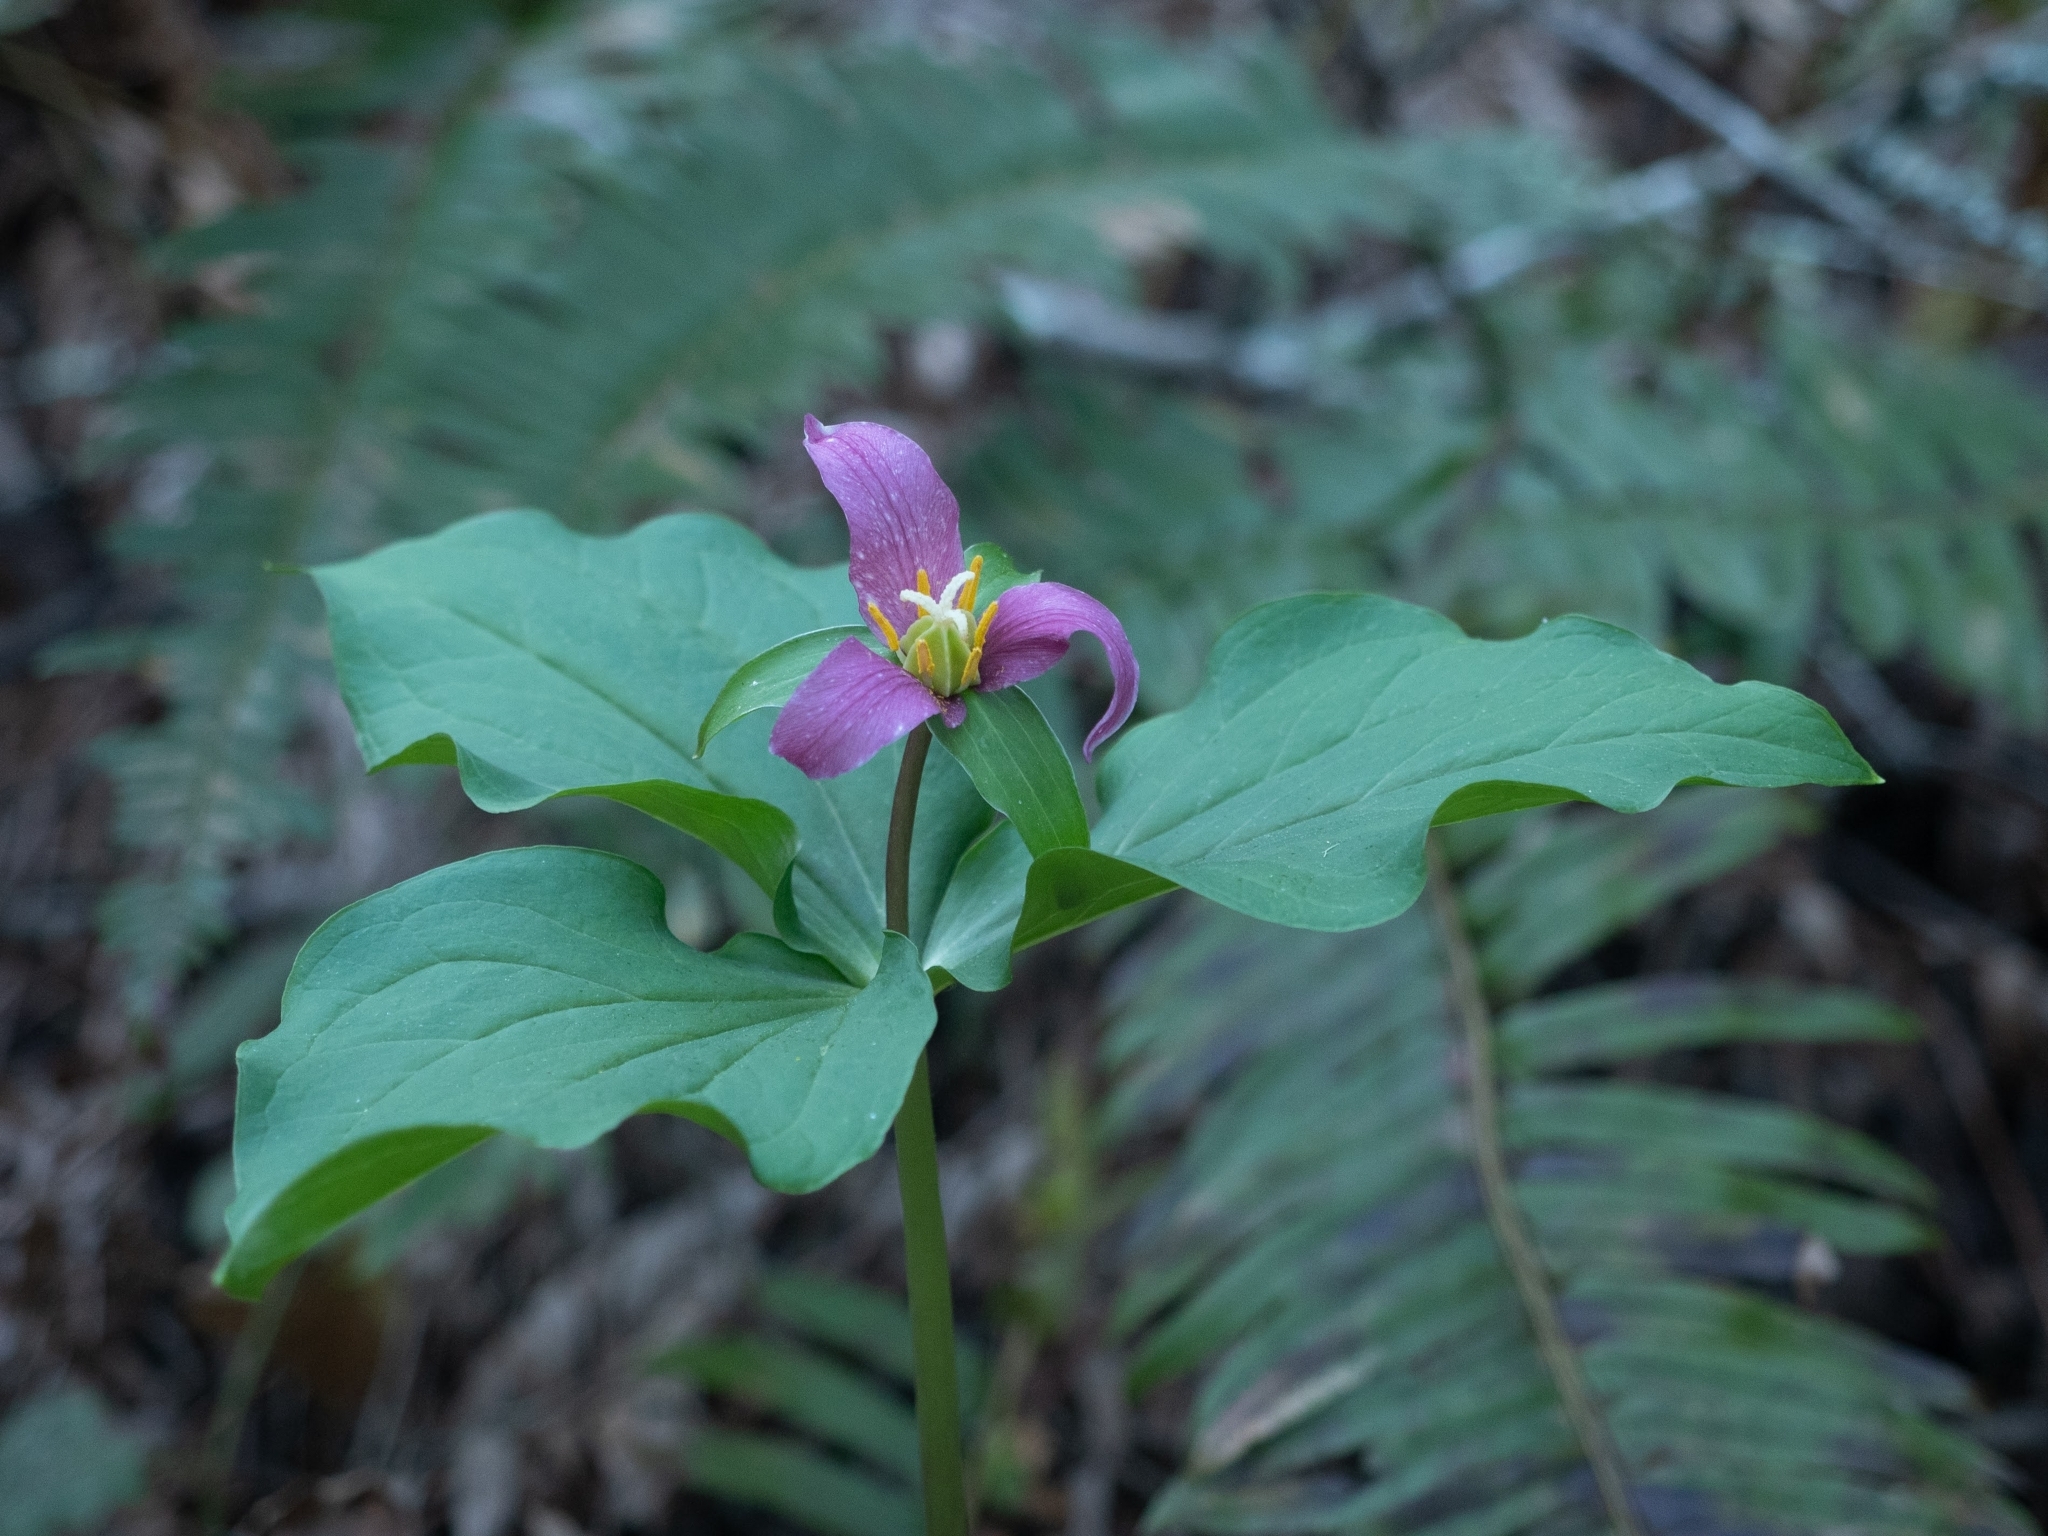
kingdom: Plantae
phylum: Tracheophyta
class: Liliopsida
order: Liliales
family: Melanthiaceae
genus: Trillium
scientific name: Trillium ovatum
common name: Pacific trillium
